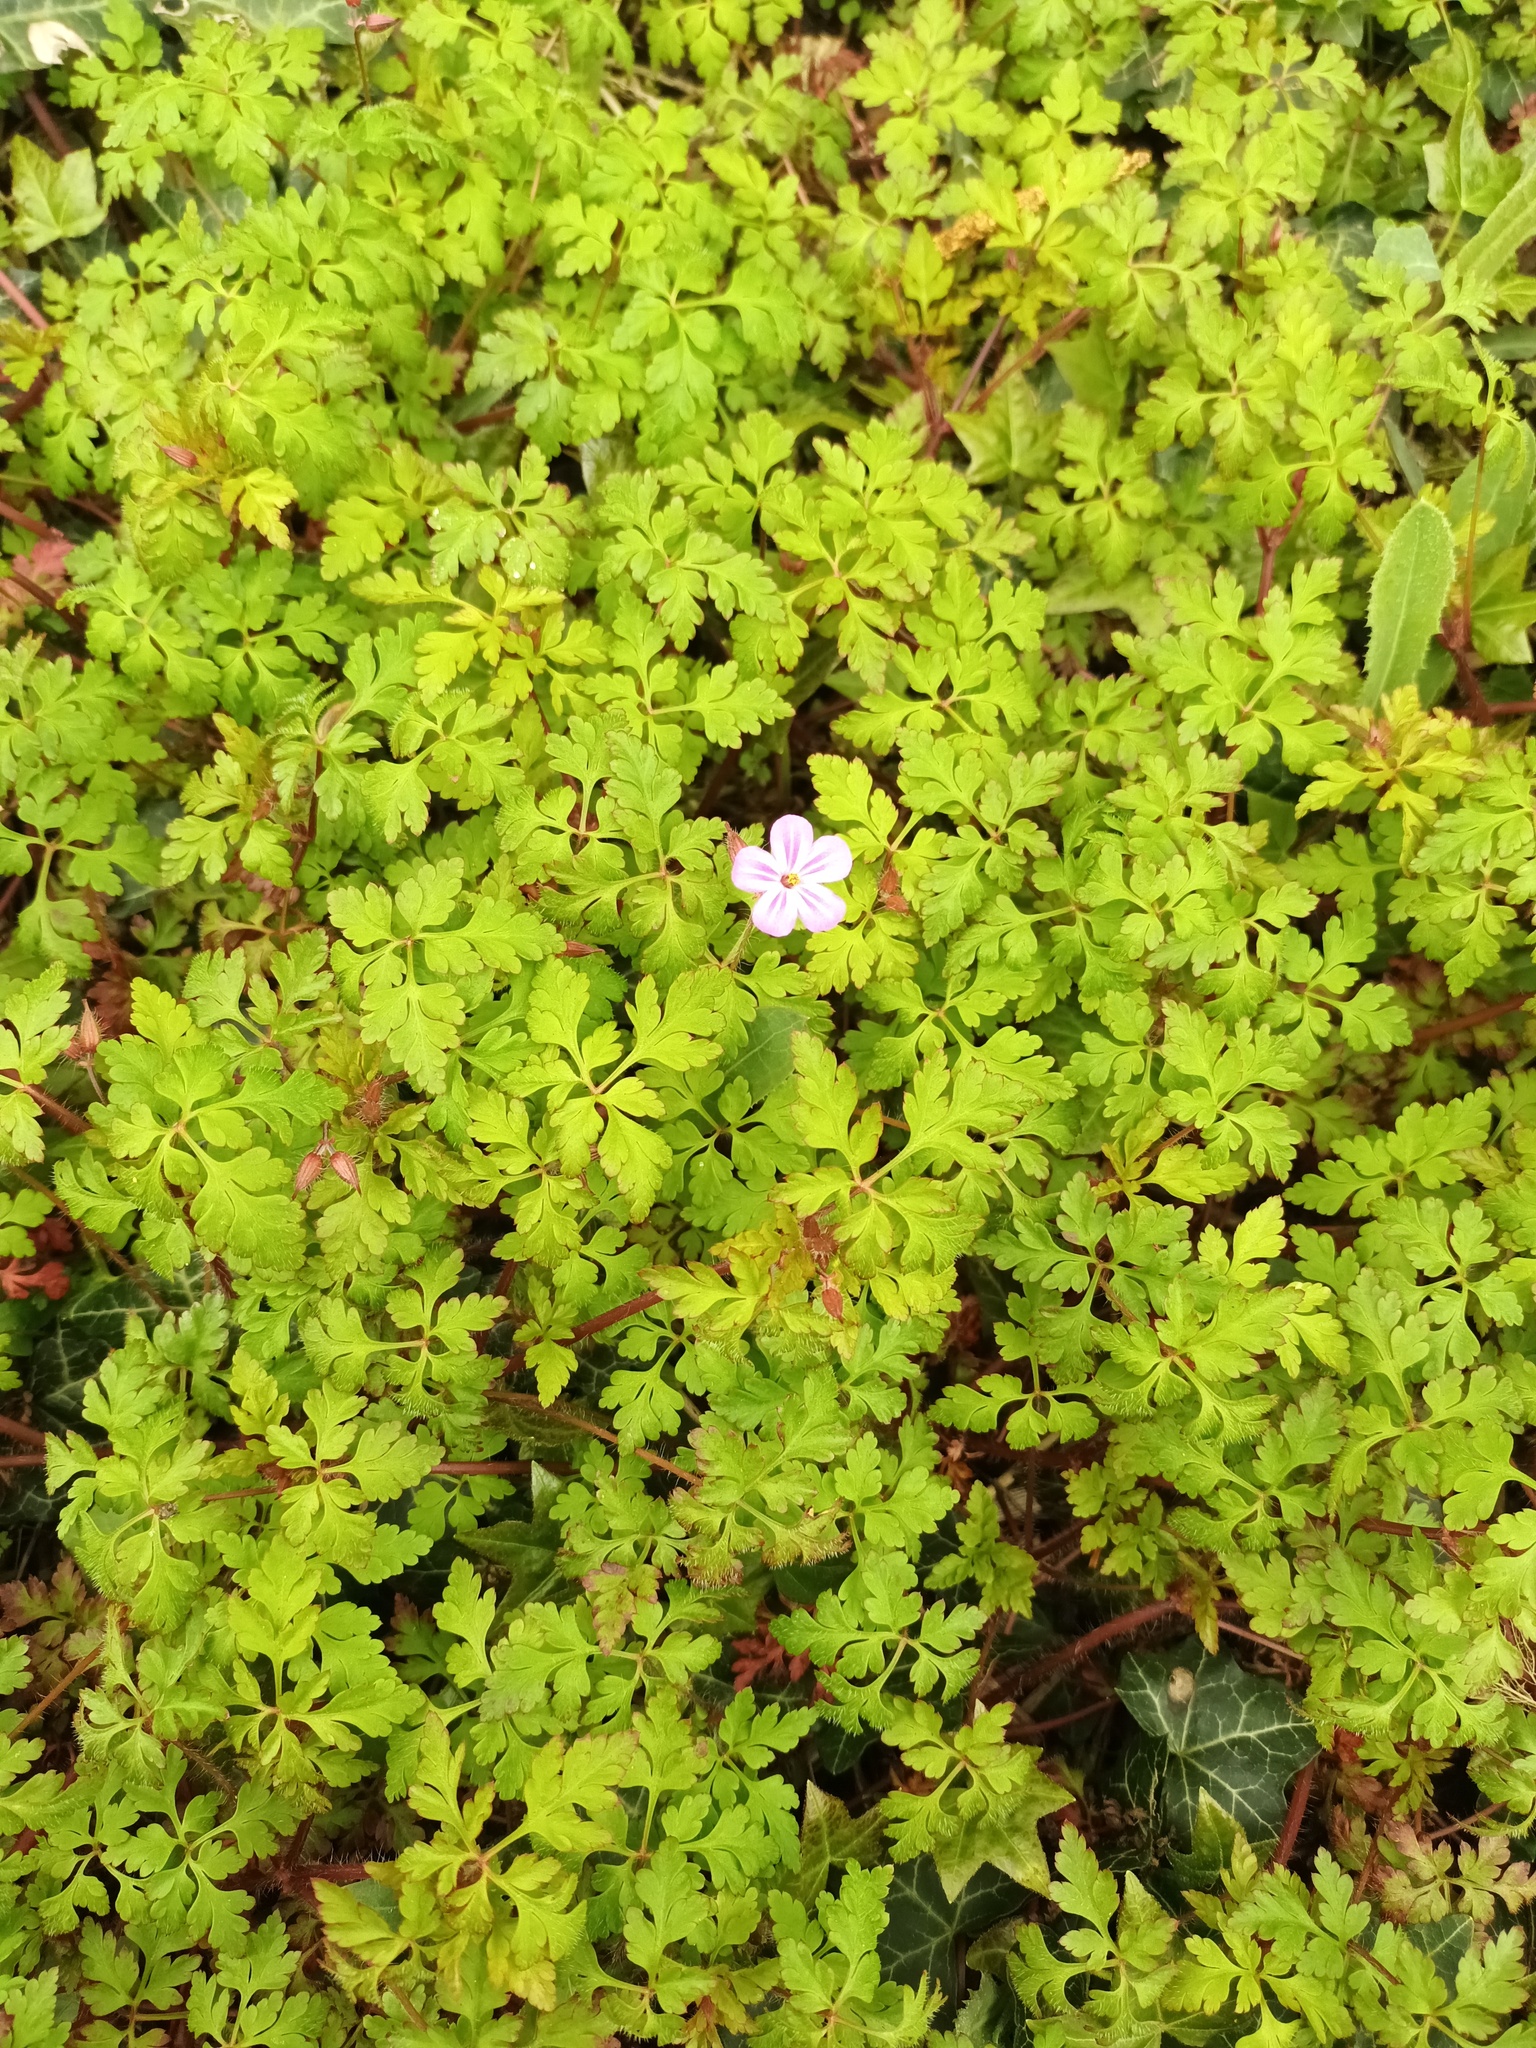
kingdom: Plantae
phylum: Tracheophyta
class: Magnoliopsida
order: Geraniales
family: Geraniaceae
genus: Geranium
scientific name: Geranium robertianum
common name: Herb-robert
